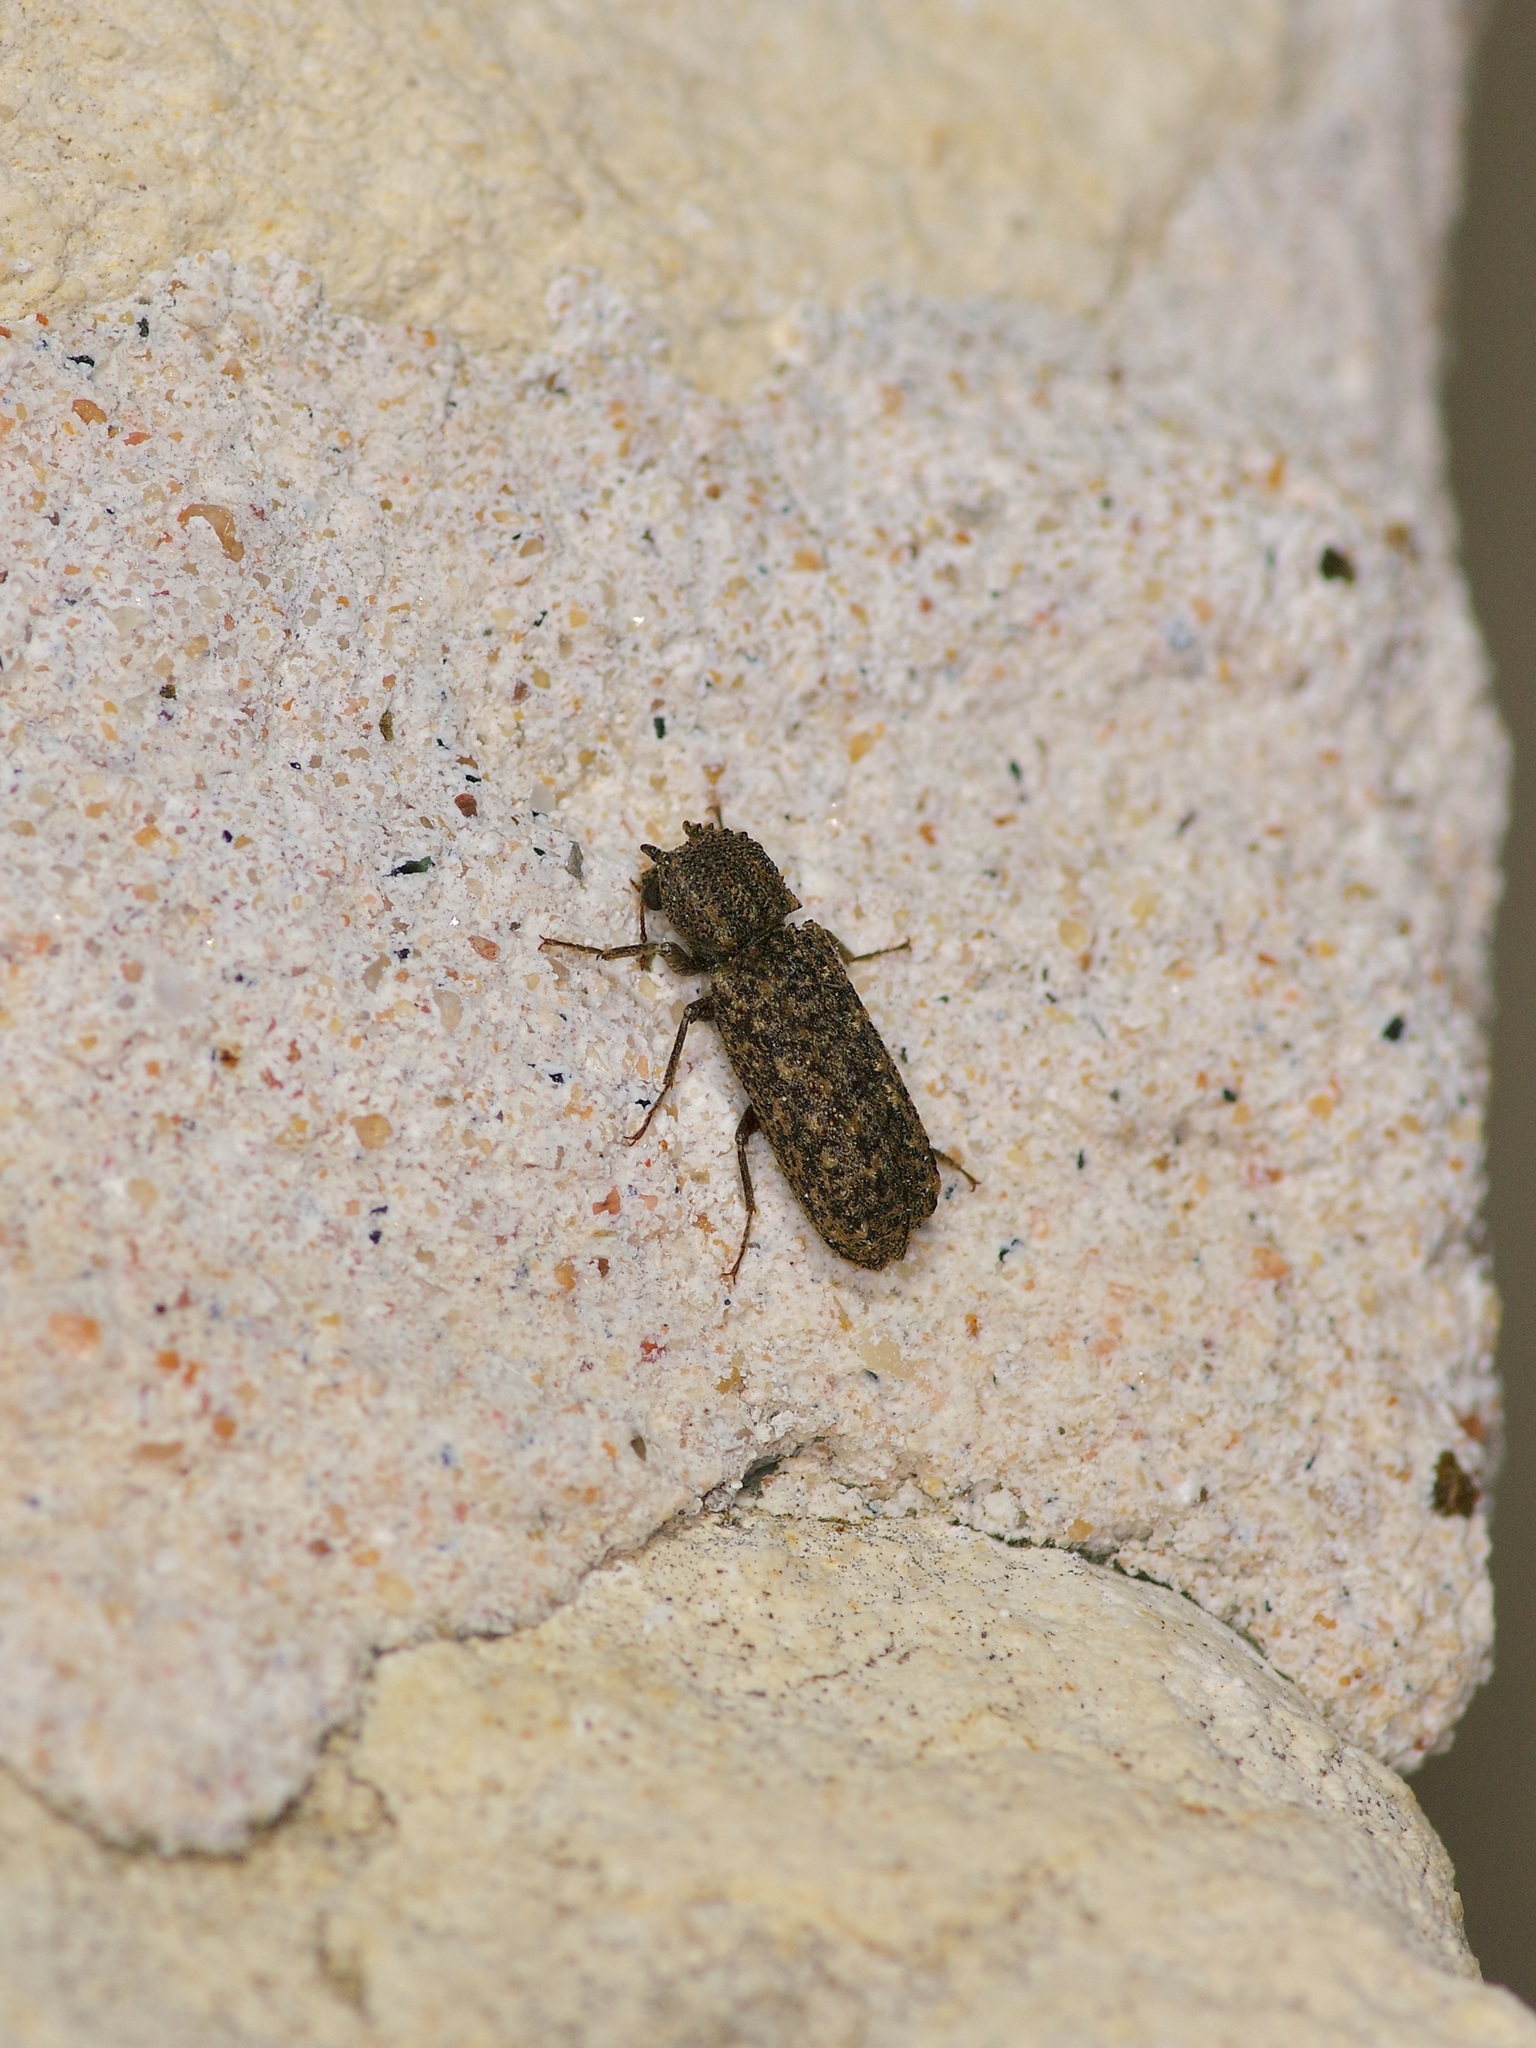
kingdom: Animalia
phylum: Arthropoda
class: Insecta
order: Coleoptera
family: Bostrichidae
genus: Lichenophanes
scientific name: Lichenophanes bicornis
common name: Two-horned powder-post beetle
